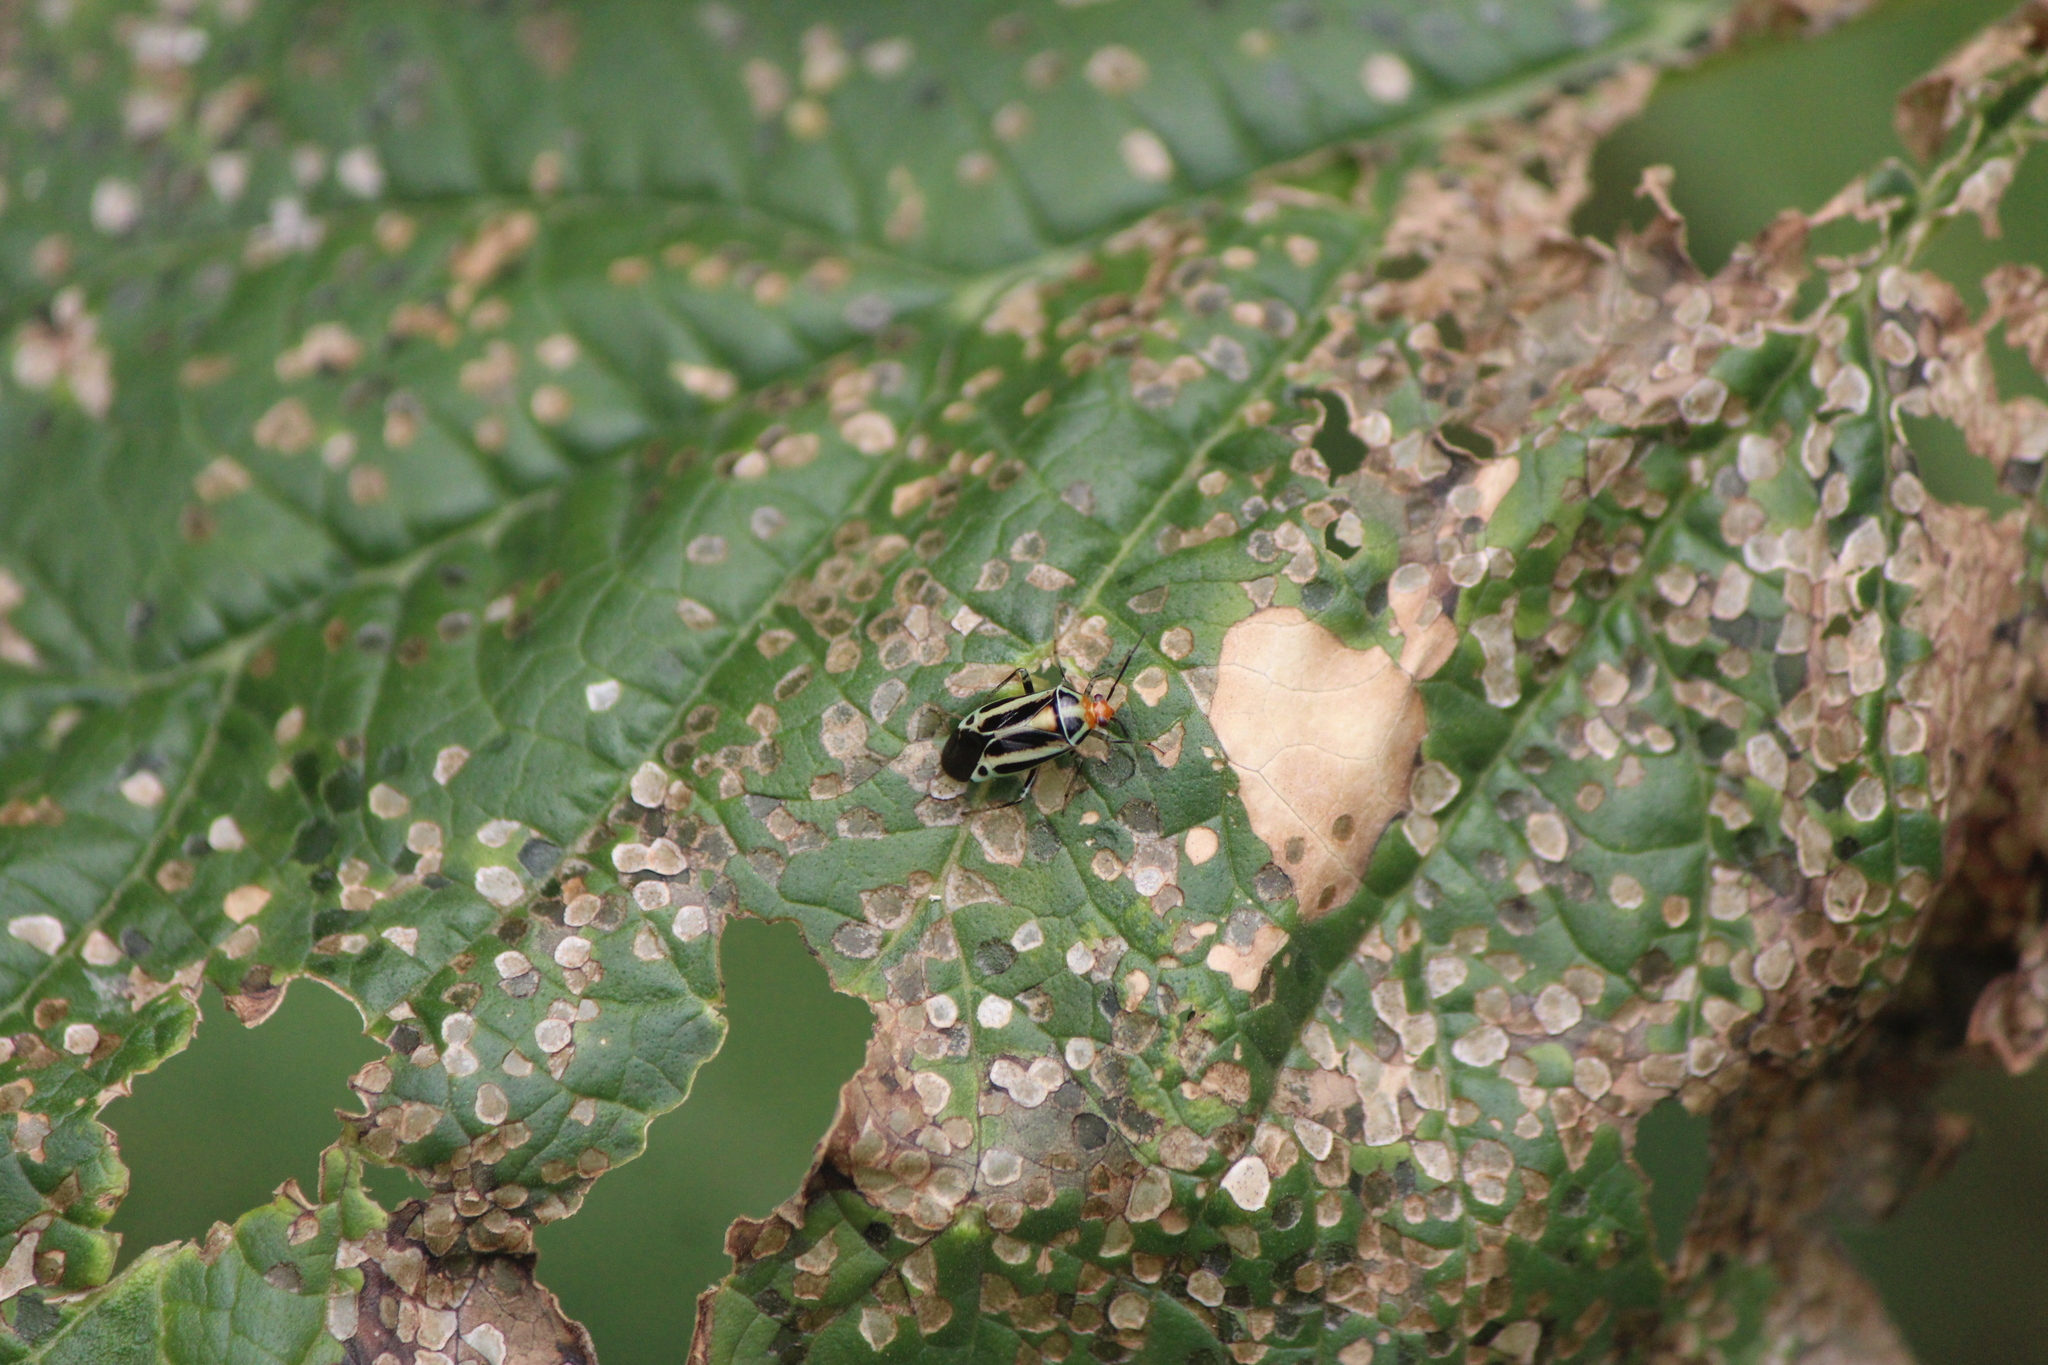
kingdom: Animalia
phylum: Arthropoda
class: Insecta
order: Hemiptera
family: Miridae
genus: Poecilocapsus
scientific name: Poecilocapsus nigriger
